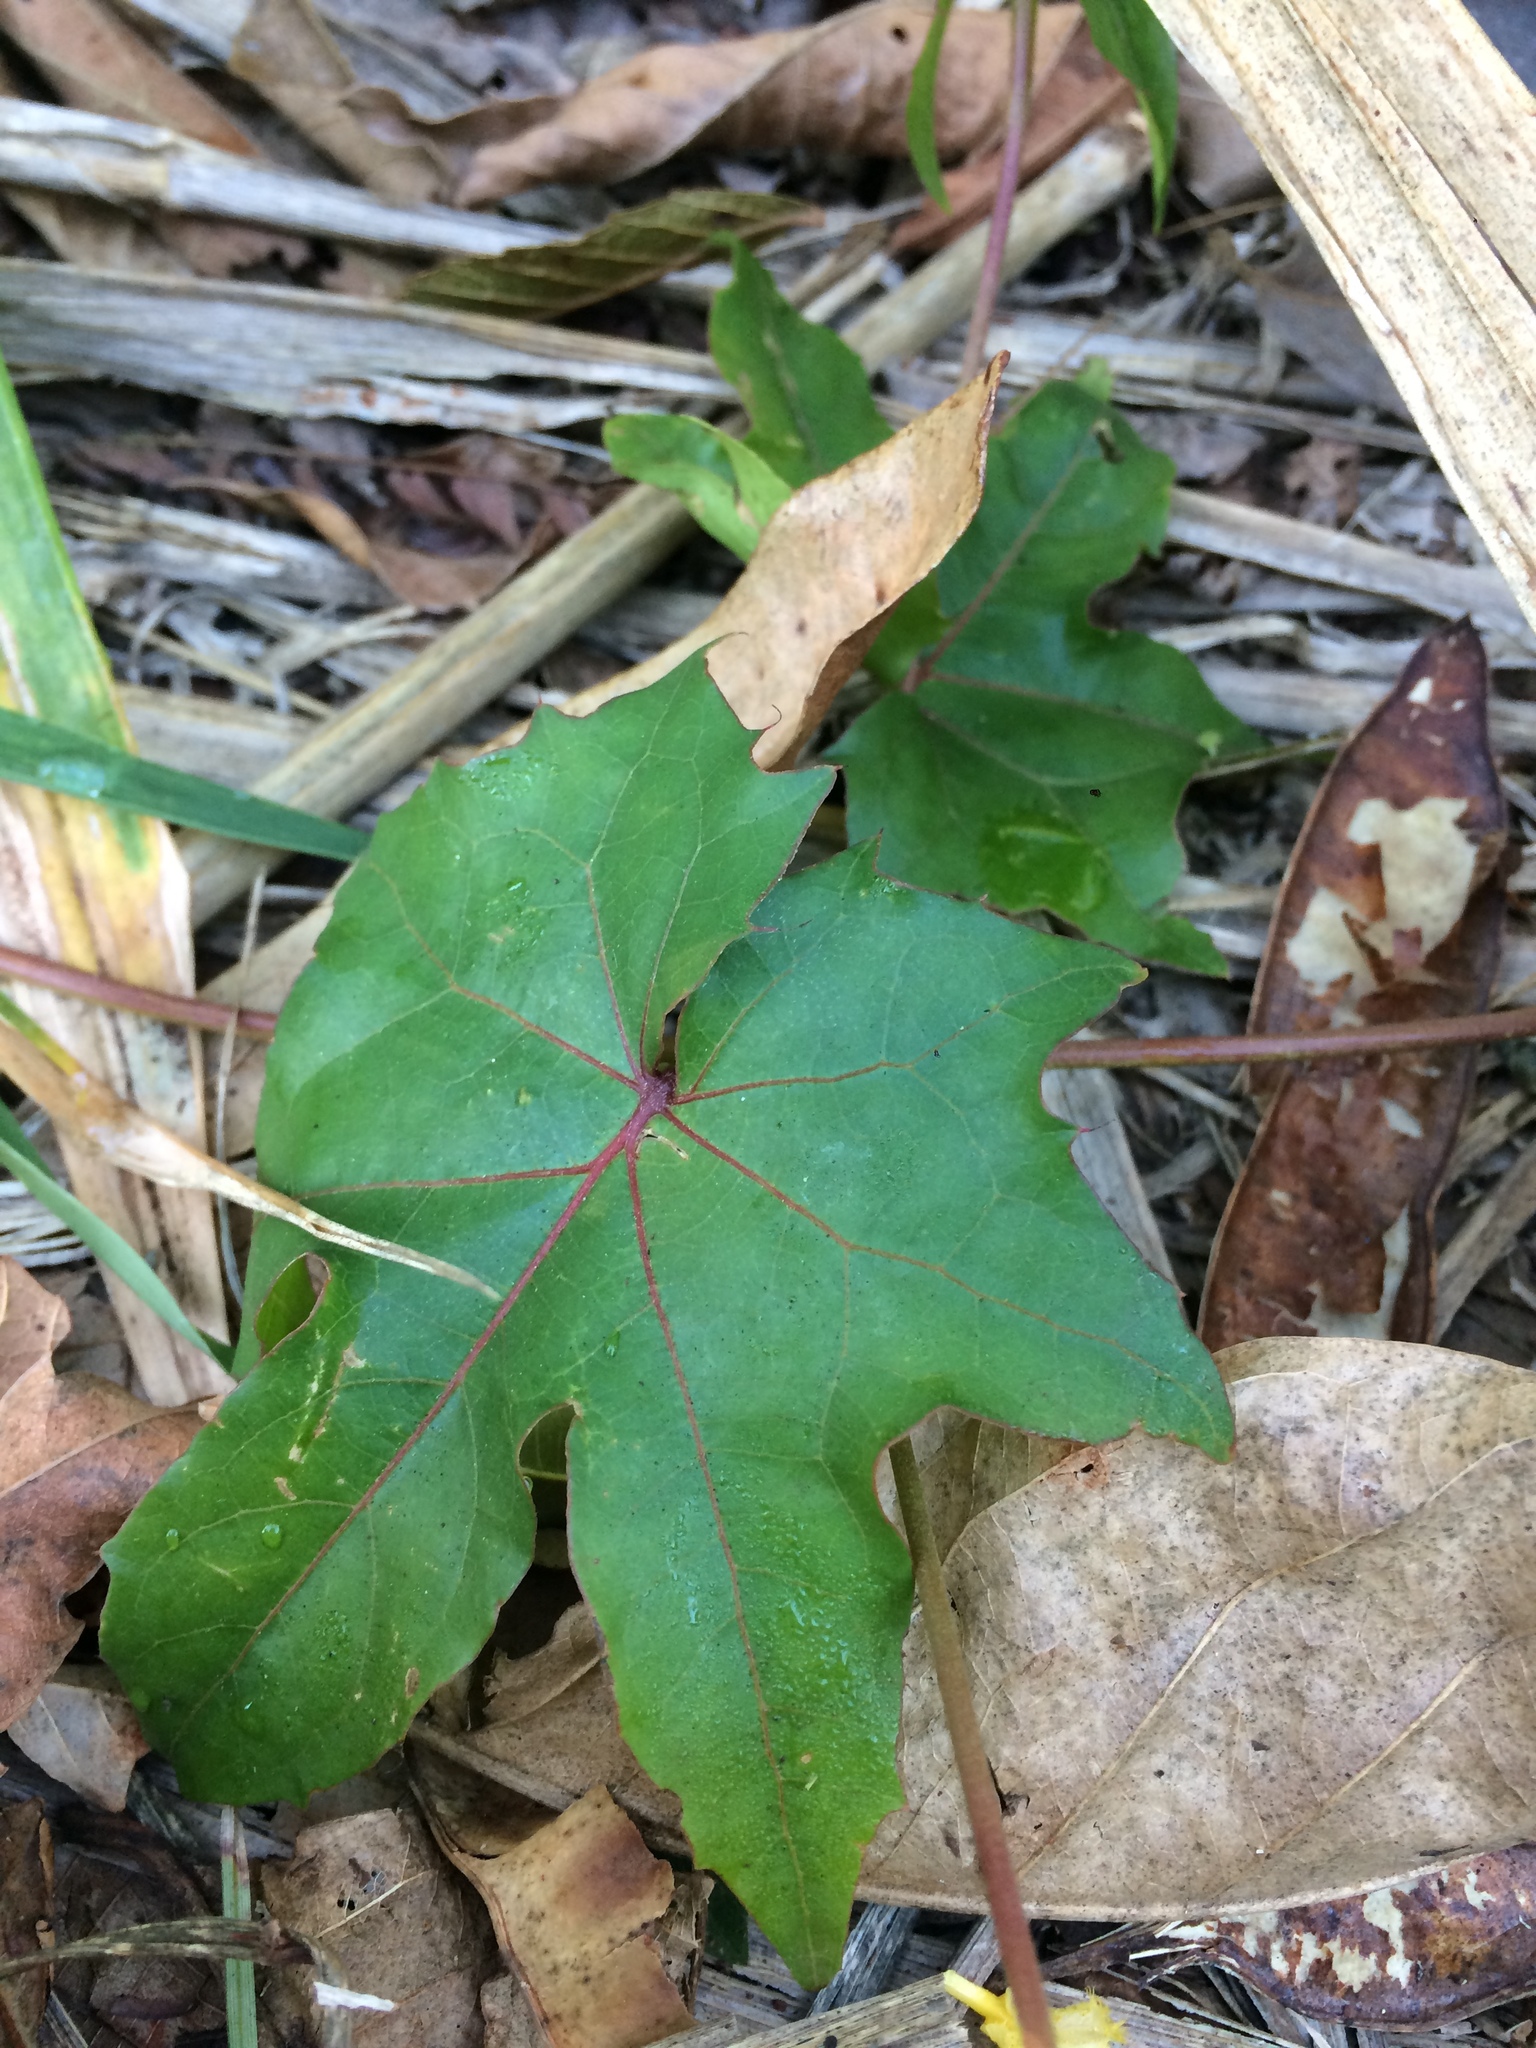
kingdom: Plantae
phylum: Tracheophyta
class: Magnoliopsida
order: Malpighiales
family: Malpighiaceae
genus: Stigmaphyllon
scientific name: Stigmaphyllon jatrophifolium
